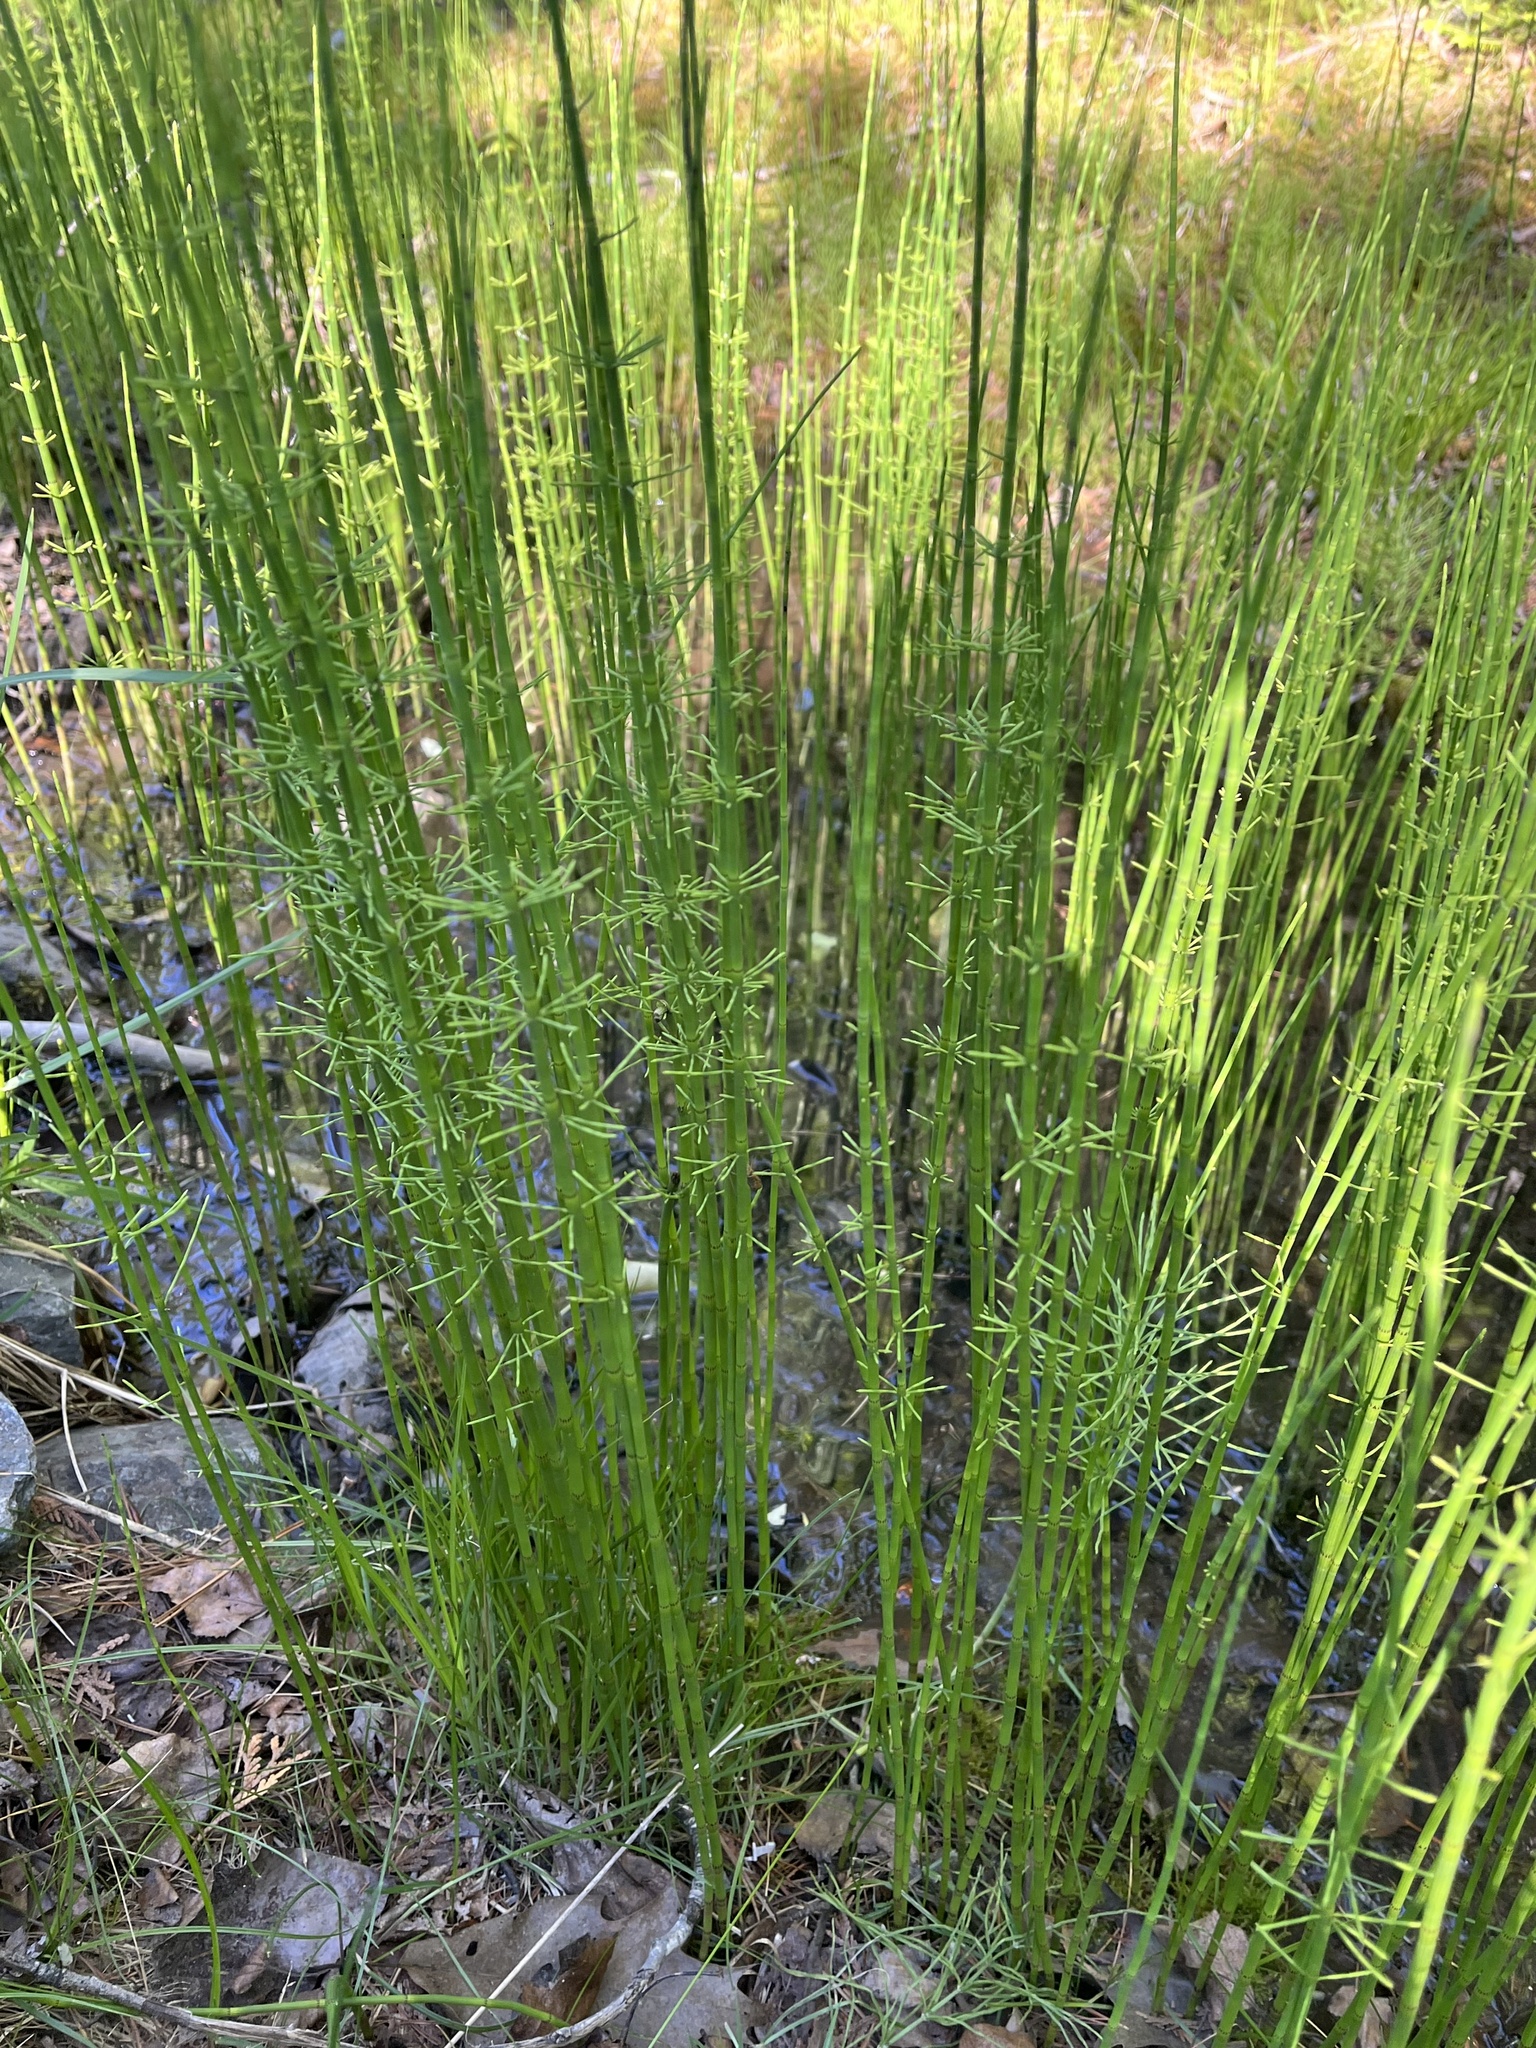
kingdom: Plantae
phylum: Tracheophyta
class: Polypodiopsida
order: Equisetales
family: Equisetaceae
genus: Equisetum
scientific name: Equisetum fluviatile
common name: Water horsetail
